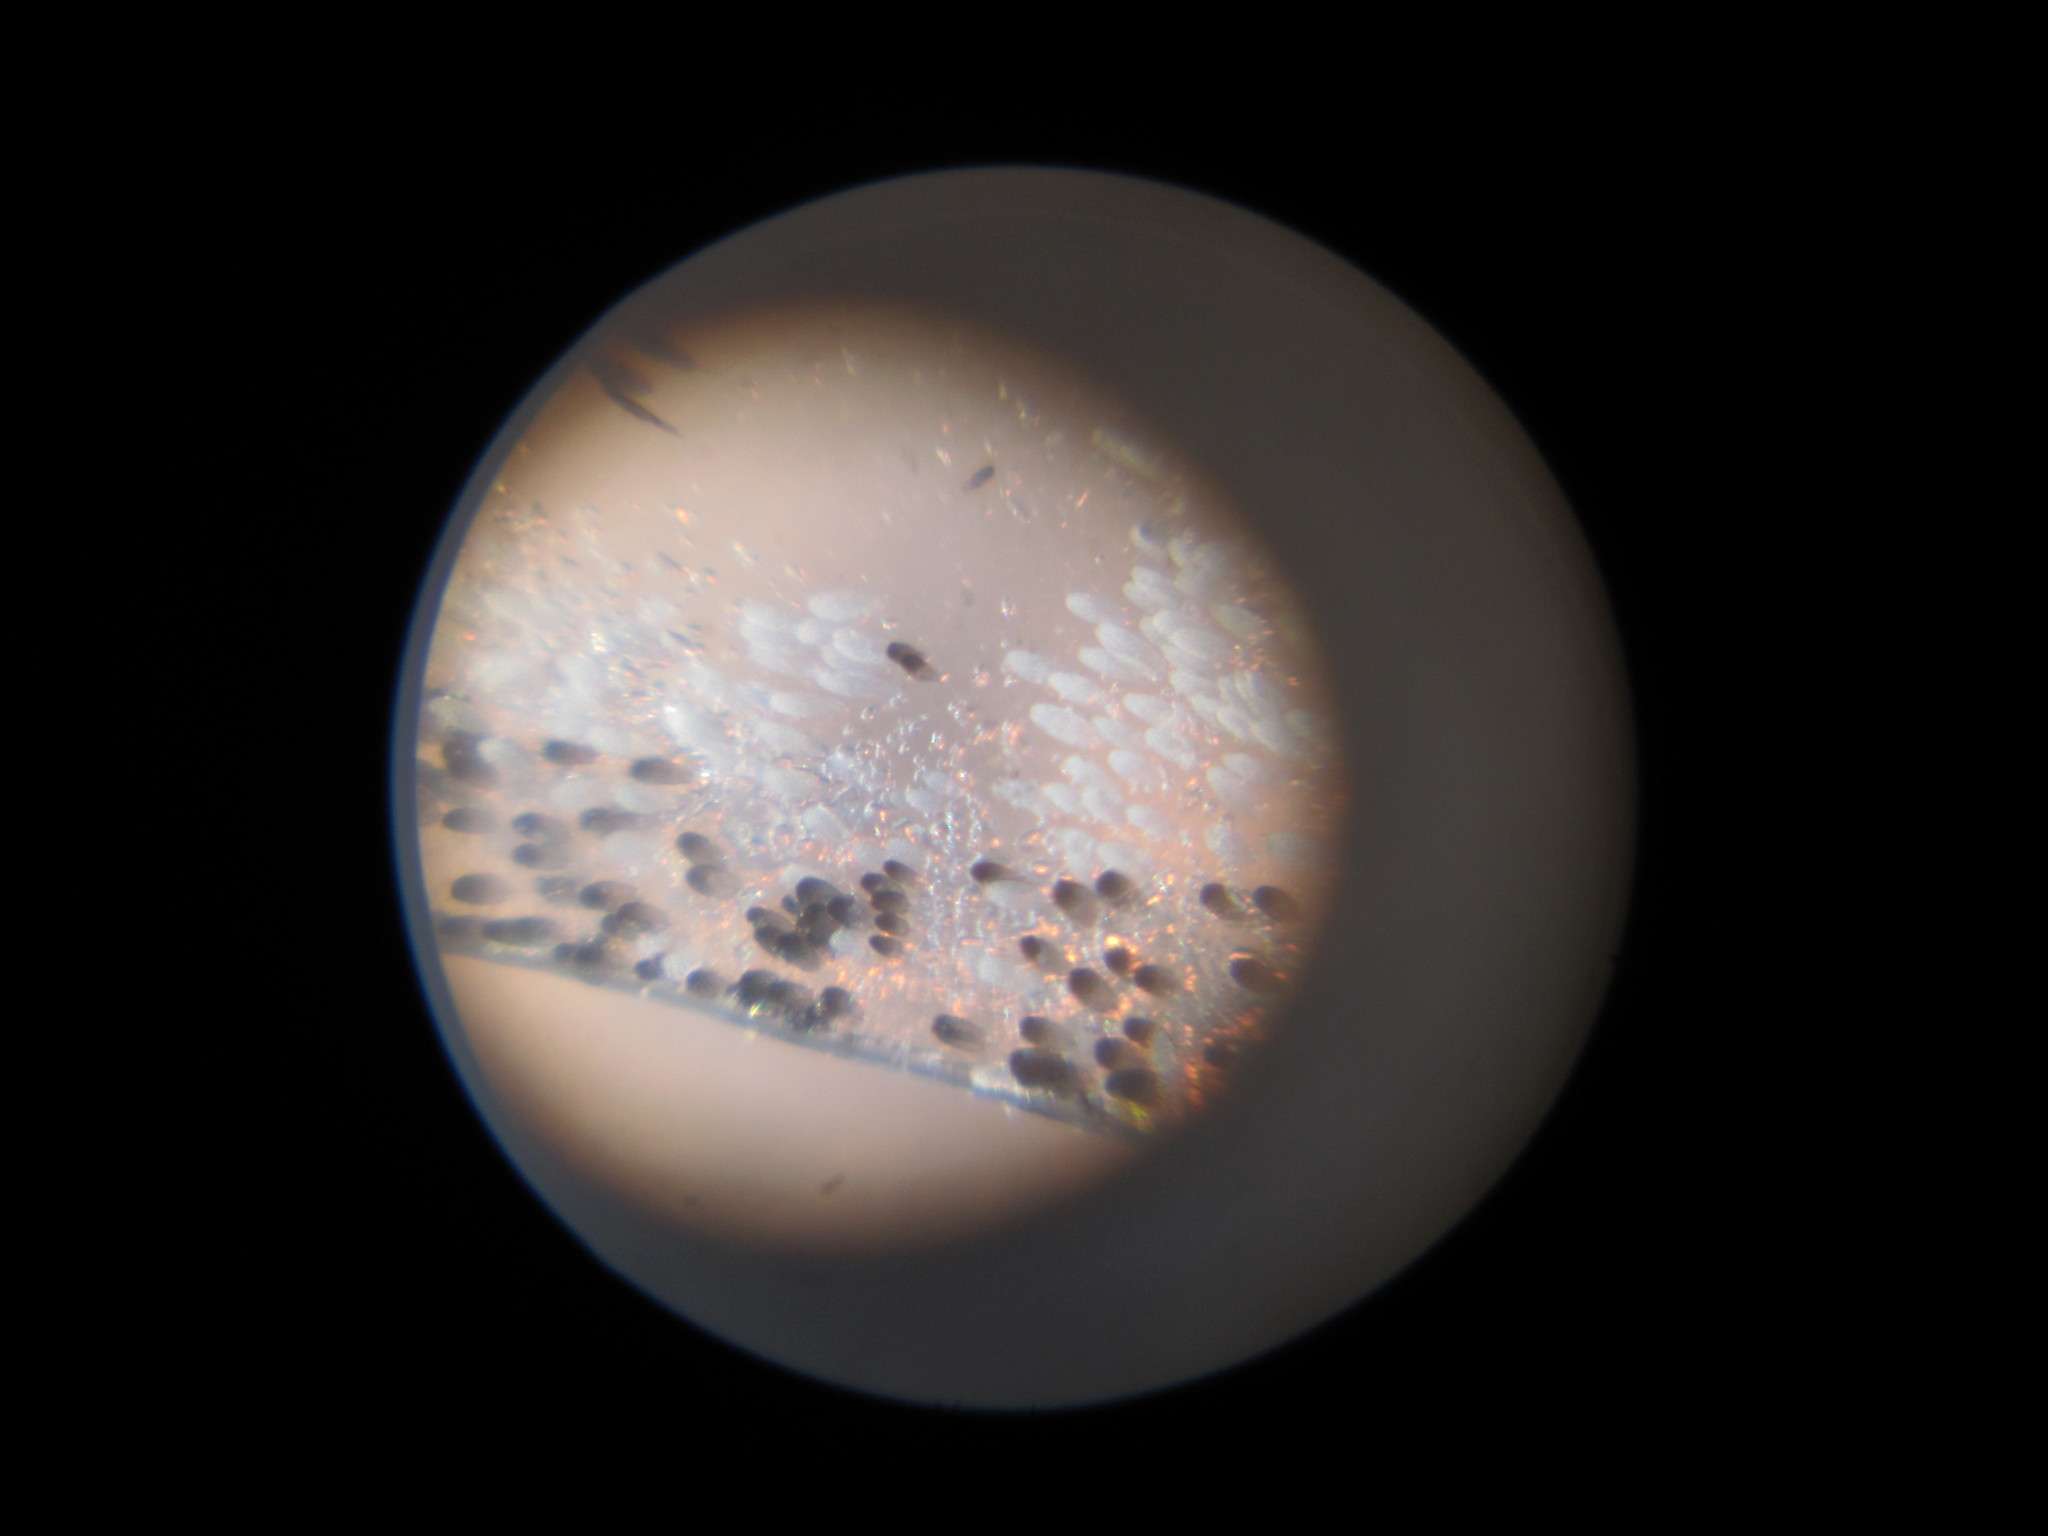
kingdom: Animalia
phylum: Arthropoda
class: Insecta
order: Lepidoptera
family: Nymphalidae
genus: Danaus
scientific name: Danaus plexippus
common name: Monarch
